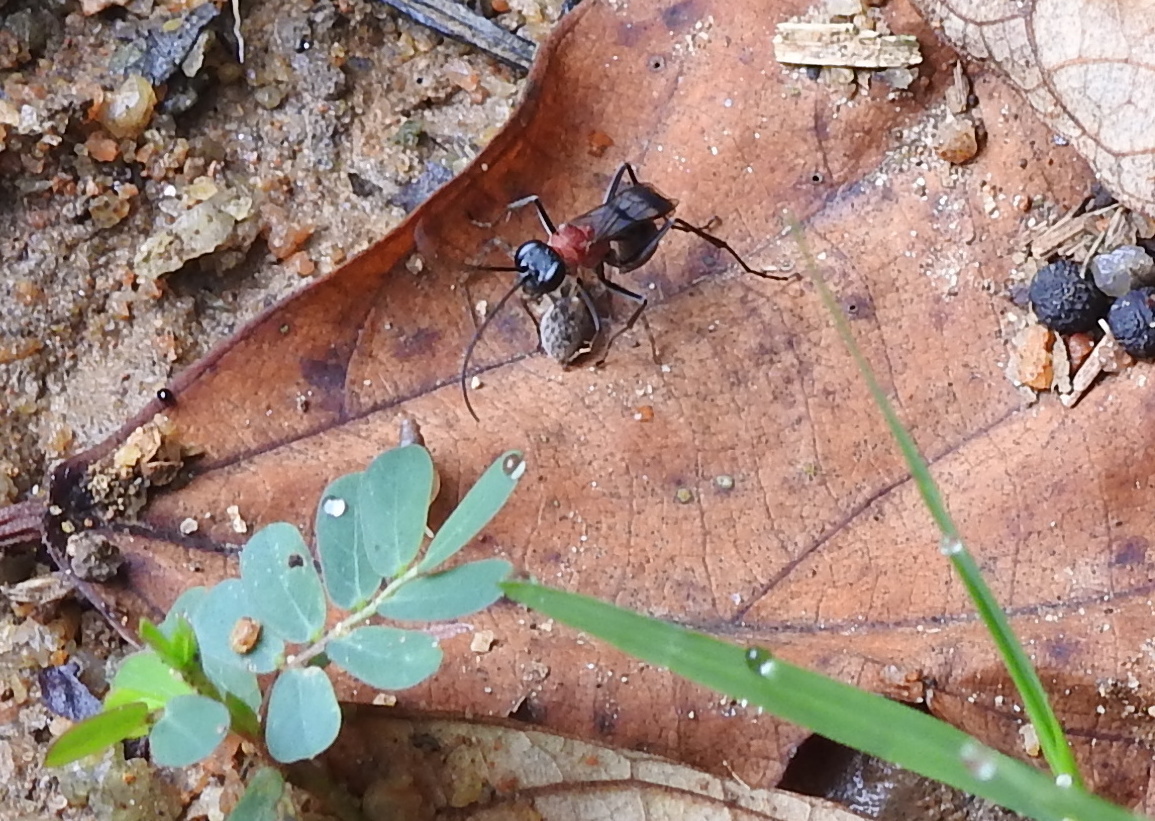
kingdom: Animalia
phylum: Arthropoda
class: Insecta
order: Hymenoptera
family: Pompilidae
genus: Auplopus
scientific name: Auplopus aegina
